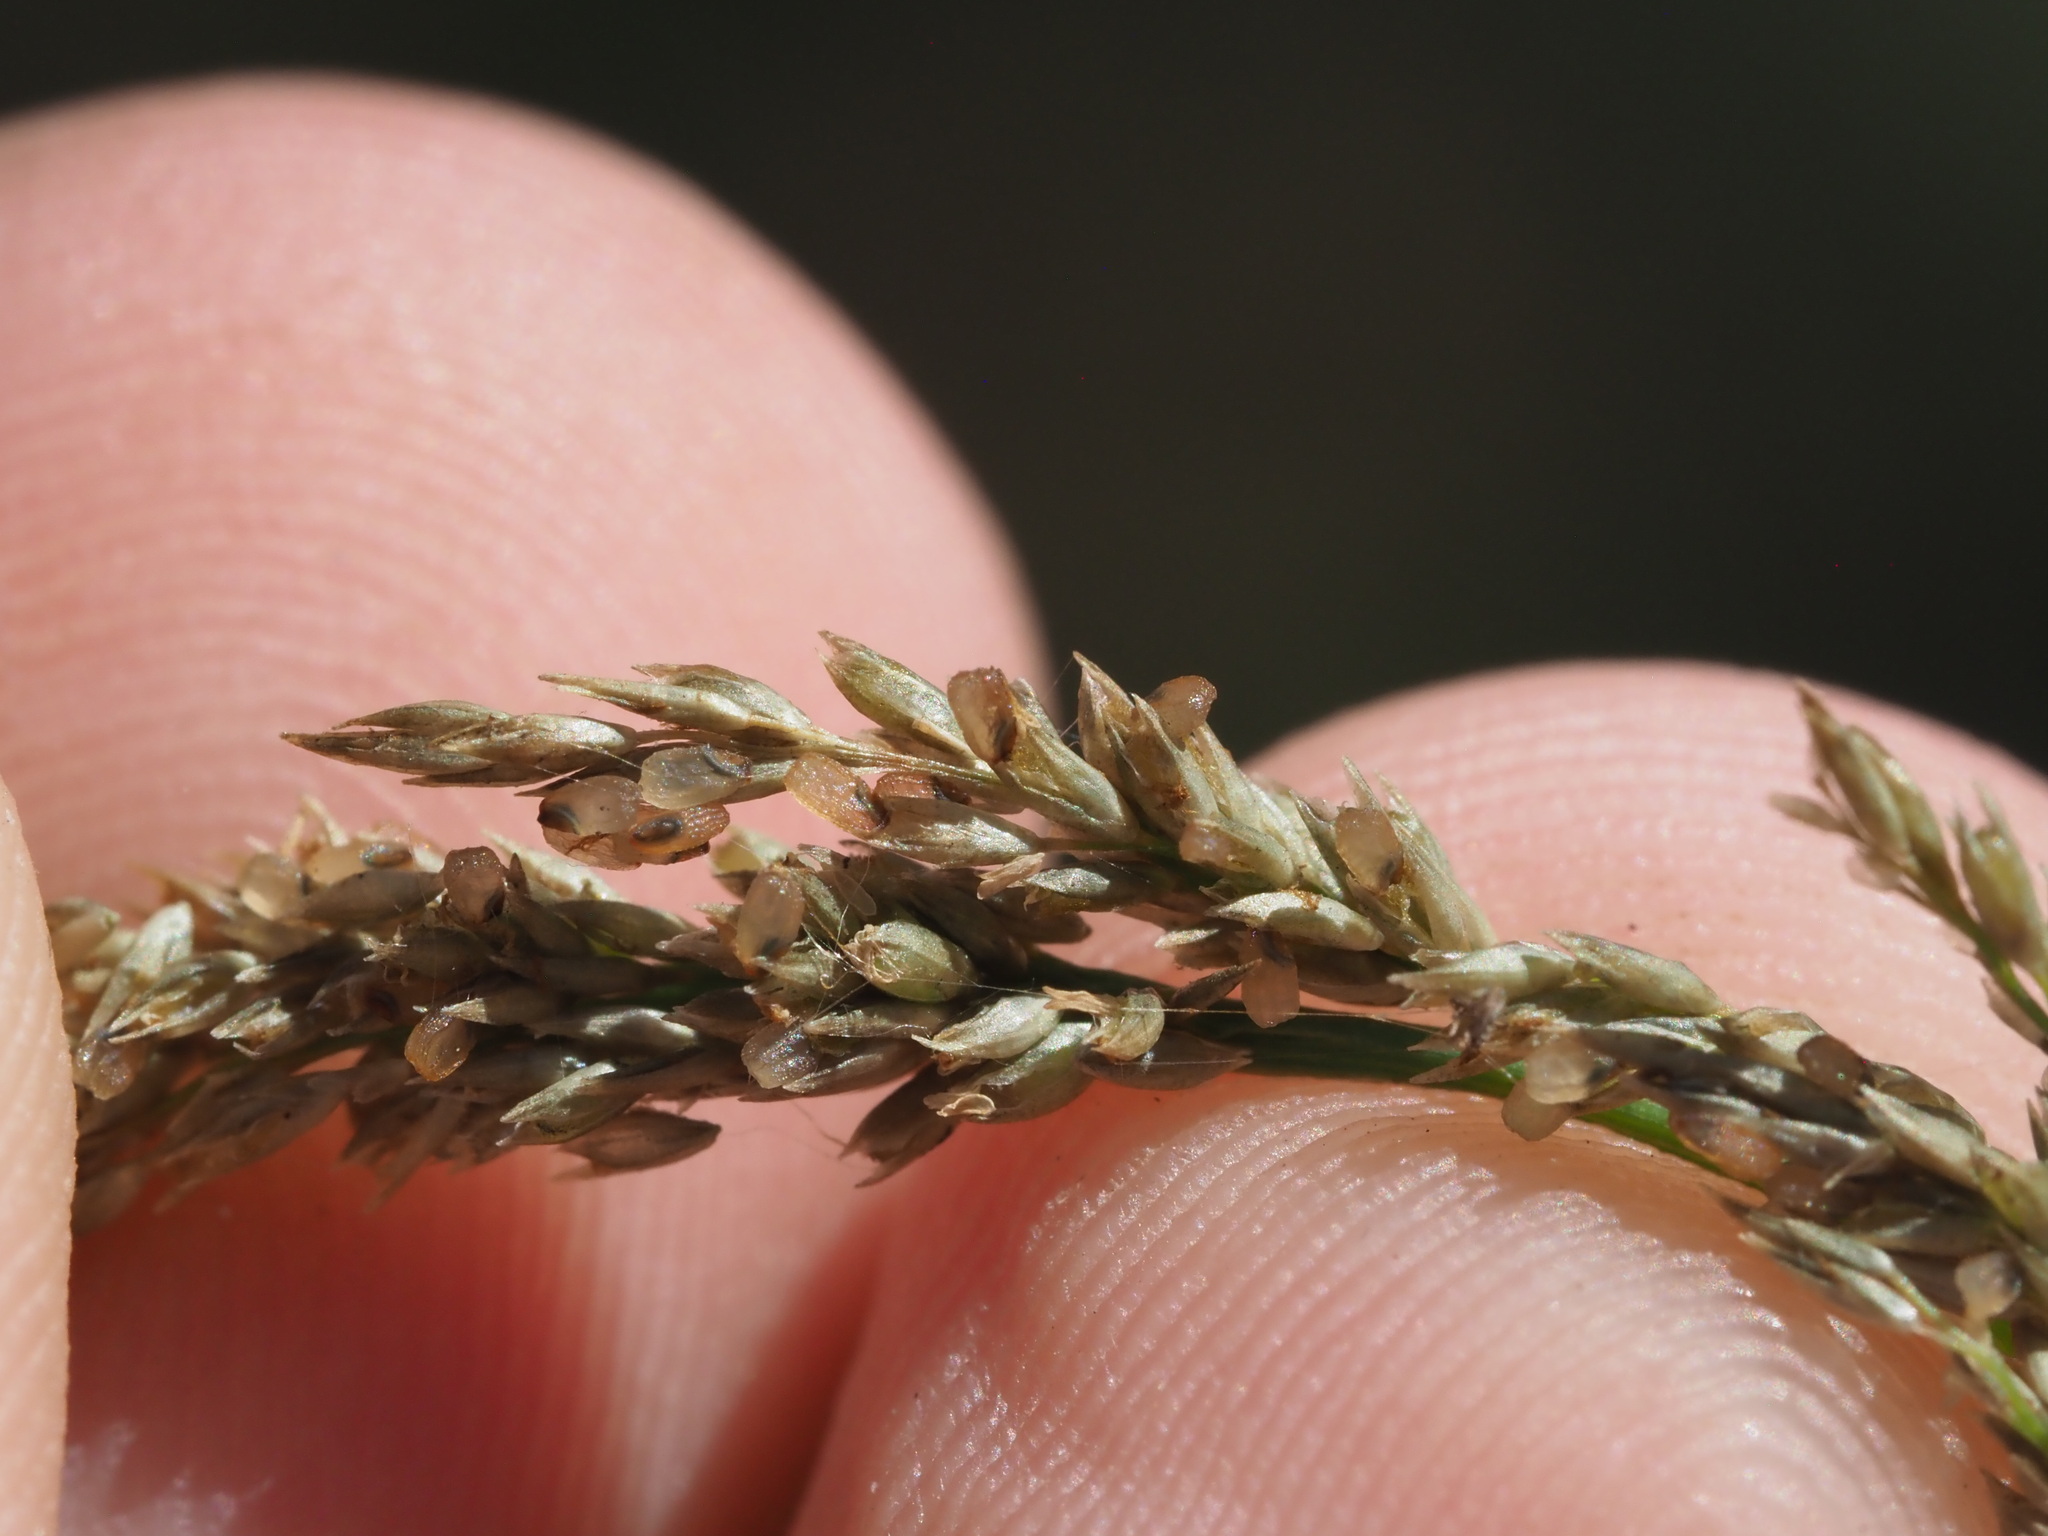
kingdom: Plantae
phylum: Tracheophyta
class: Liliopsida
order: Poales
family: Poaceae
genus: Sporobolus
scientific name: Sporobolus fertilis
